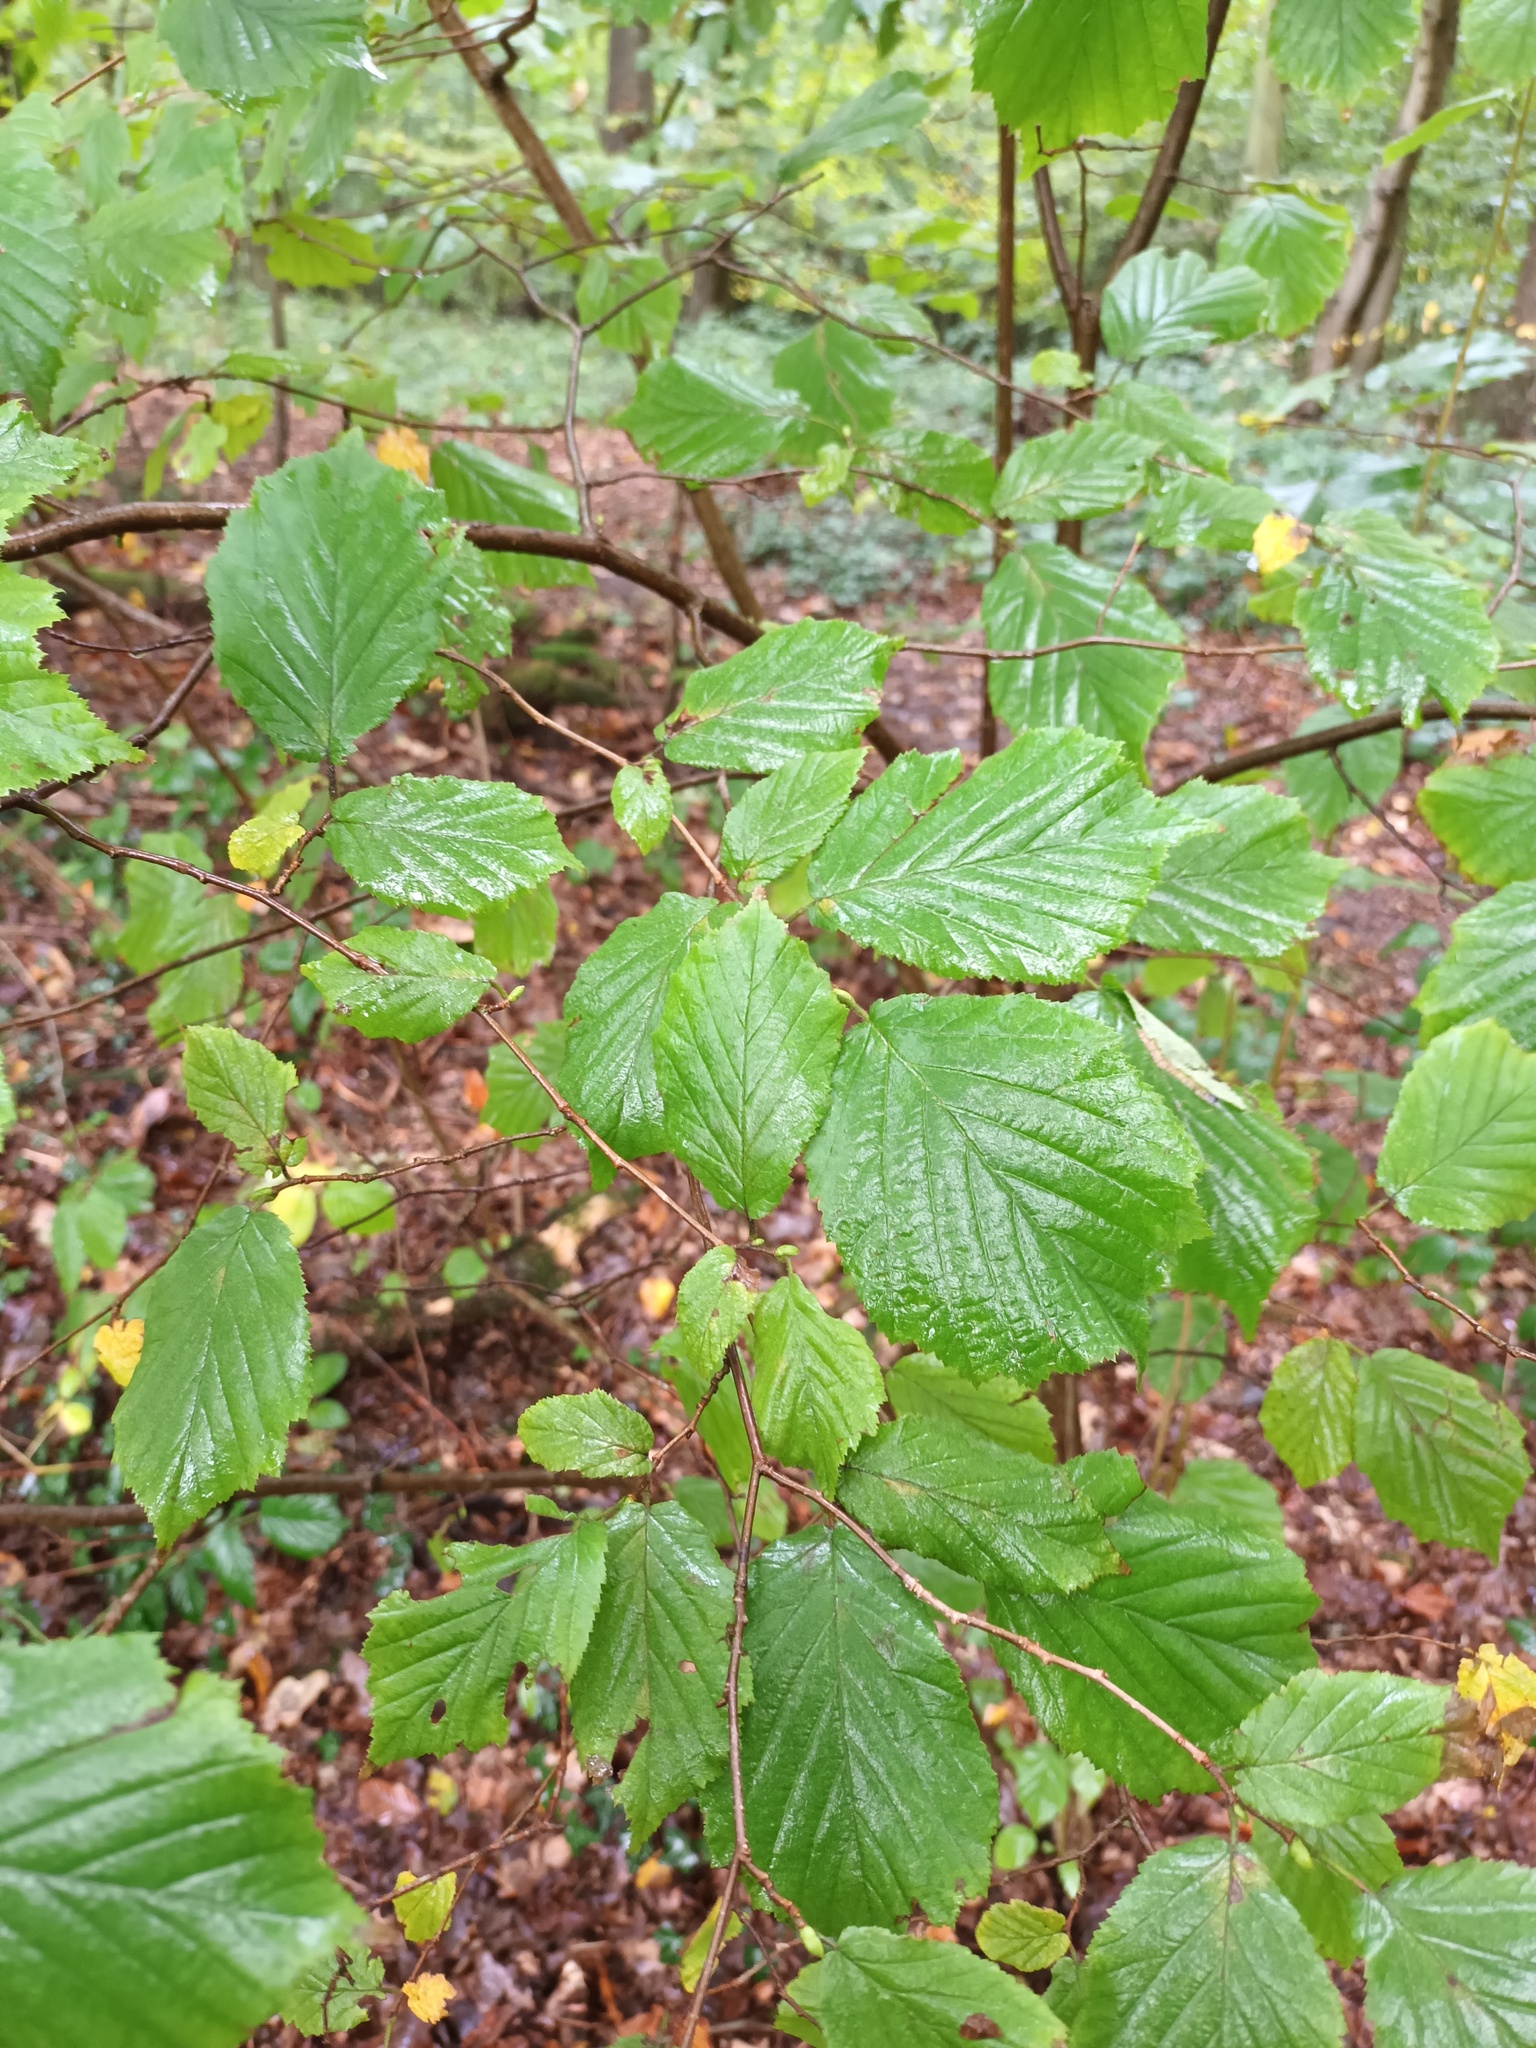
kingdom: Plantae
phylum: Tracheophyta
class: Magnoliopsida
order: Fagales
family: Betulaceae
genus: Corylus
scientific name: Corylus avellana
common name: European hazel
